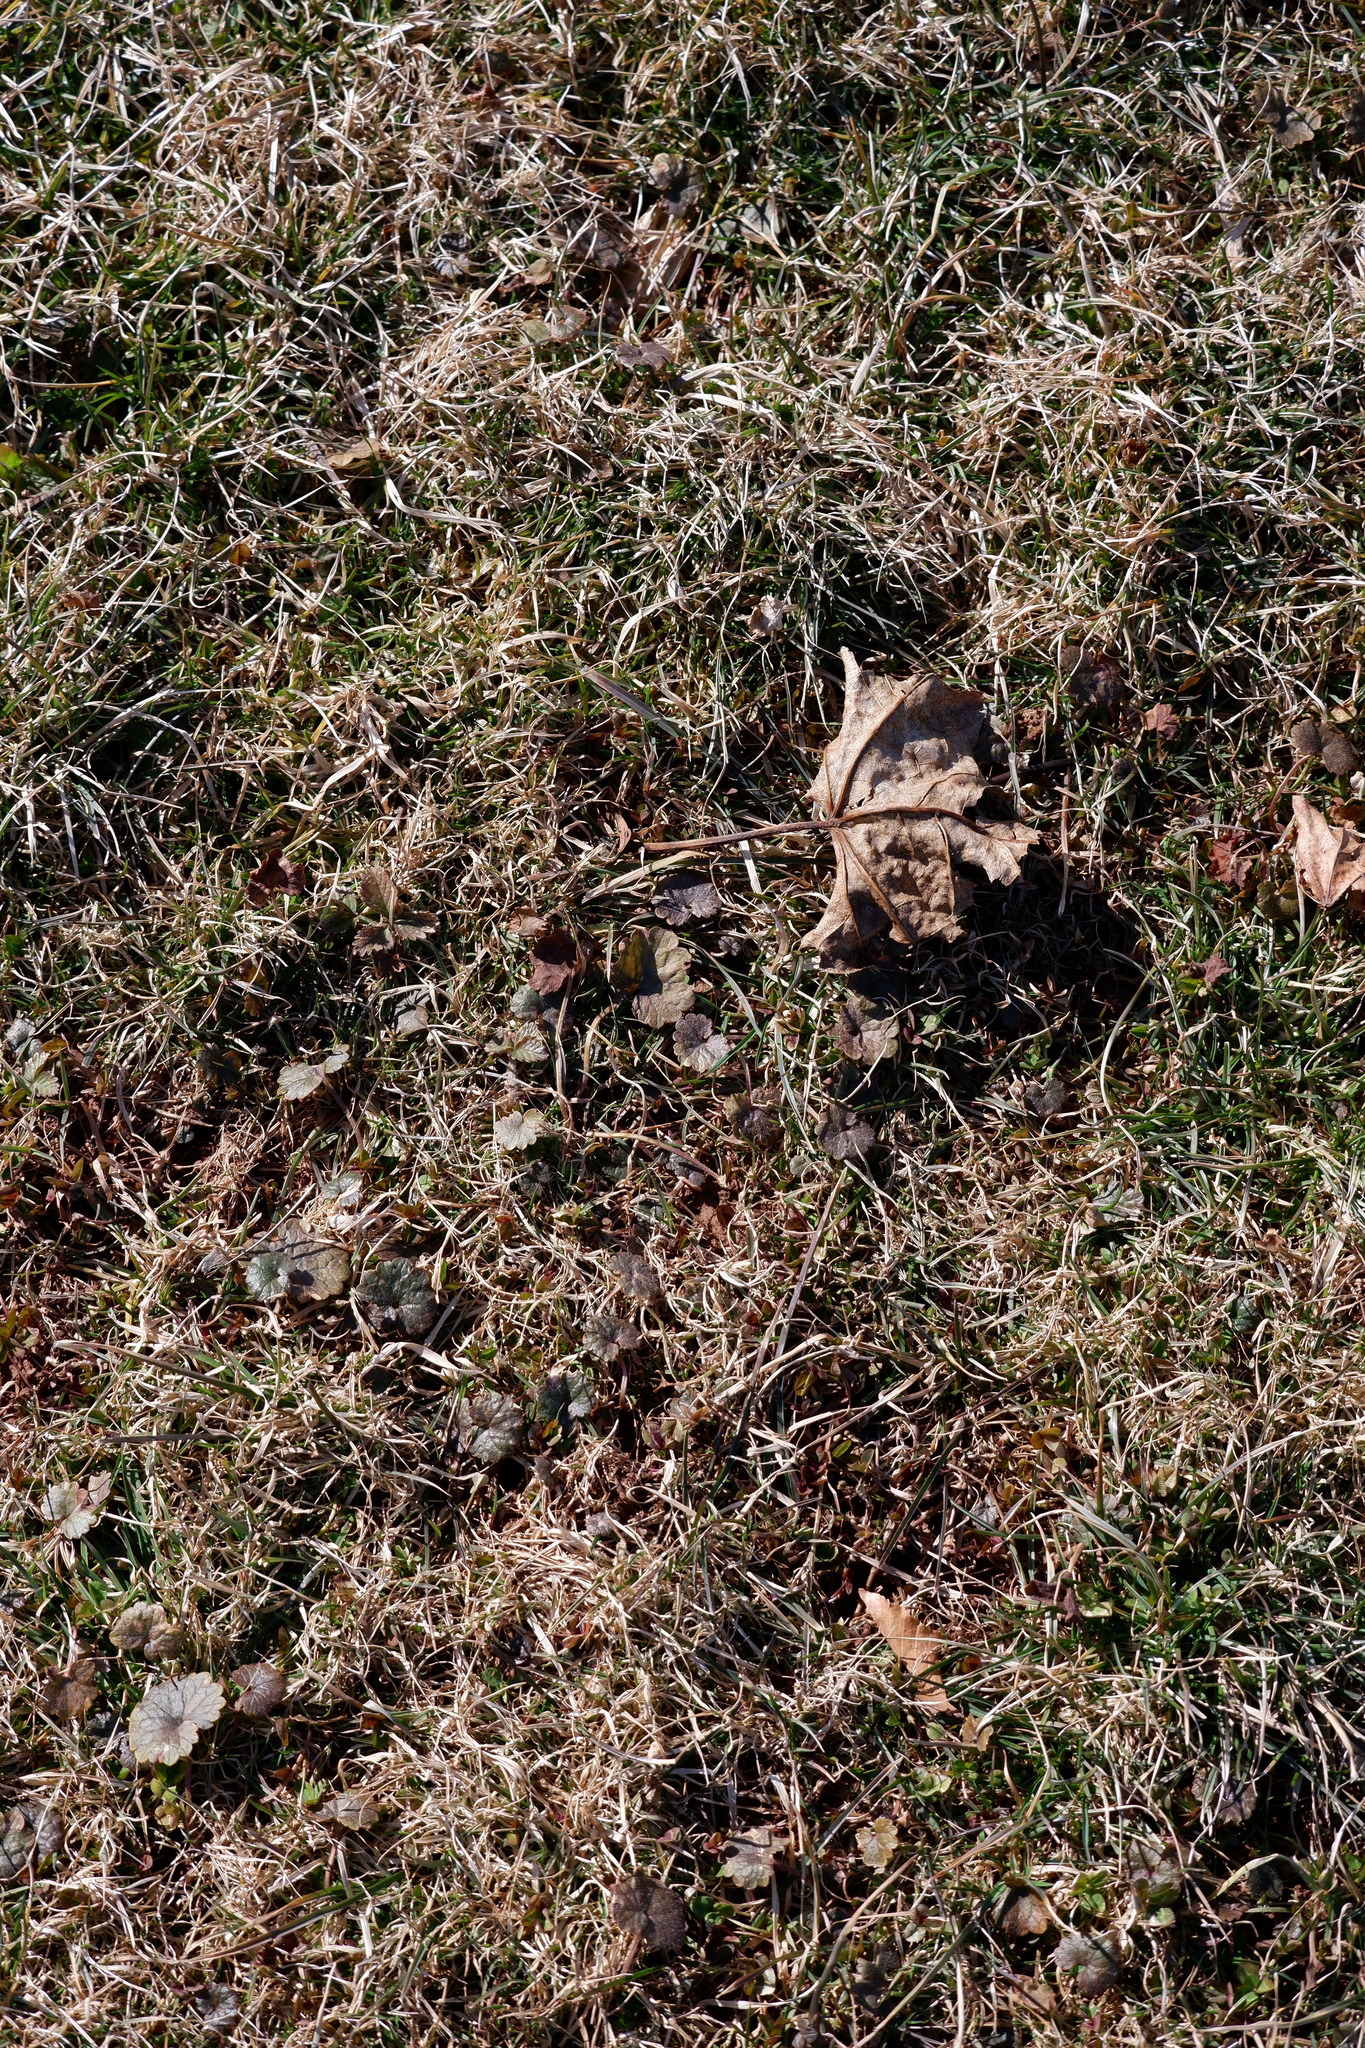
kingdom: Plantae
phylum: Tracheophyta
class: Magnoliopsida
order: Lamiales
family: Lamiaceae
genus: Glechoma
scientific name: Glechoma hederacea
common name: Ground ivy
